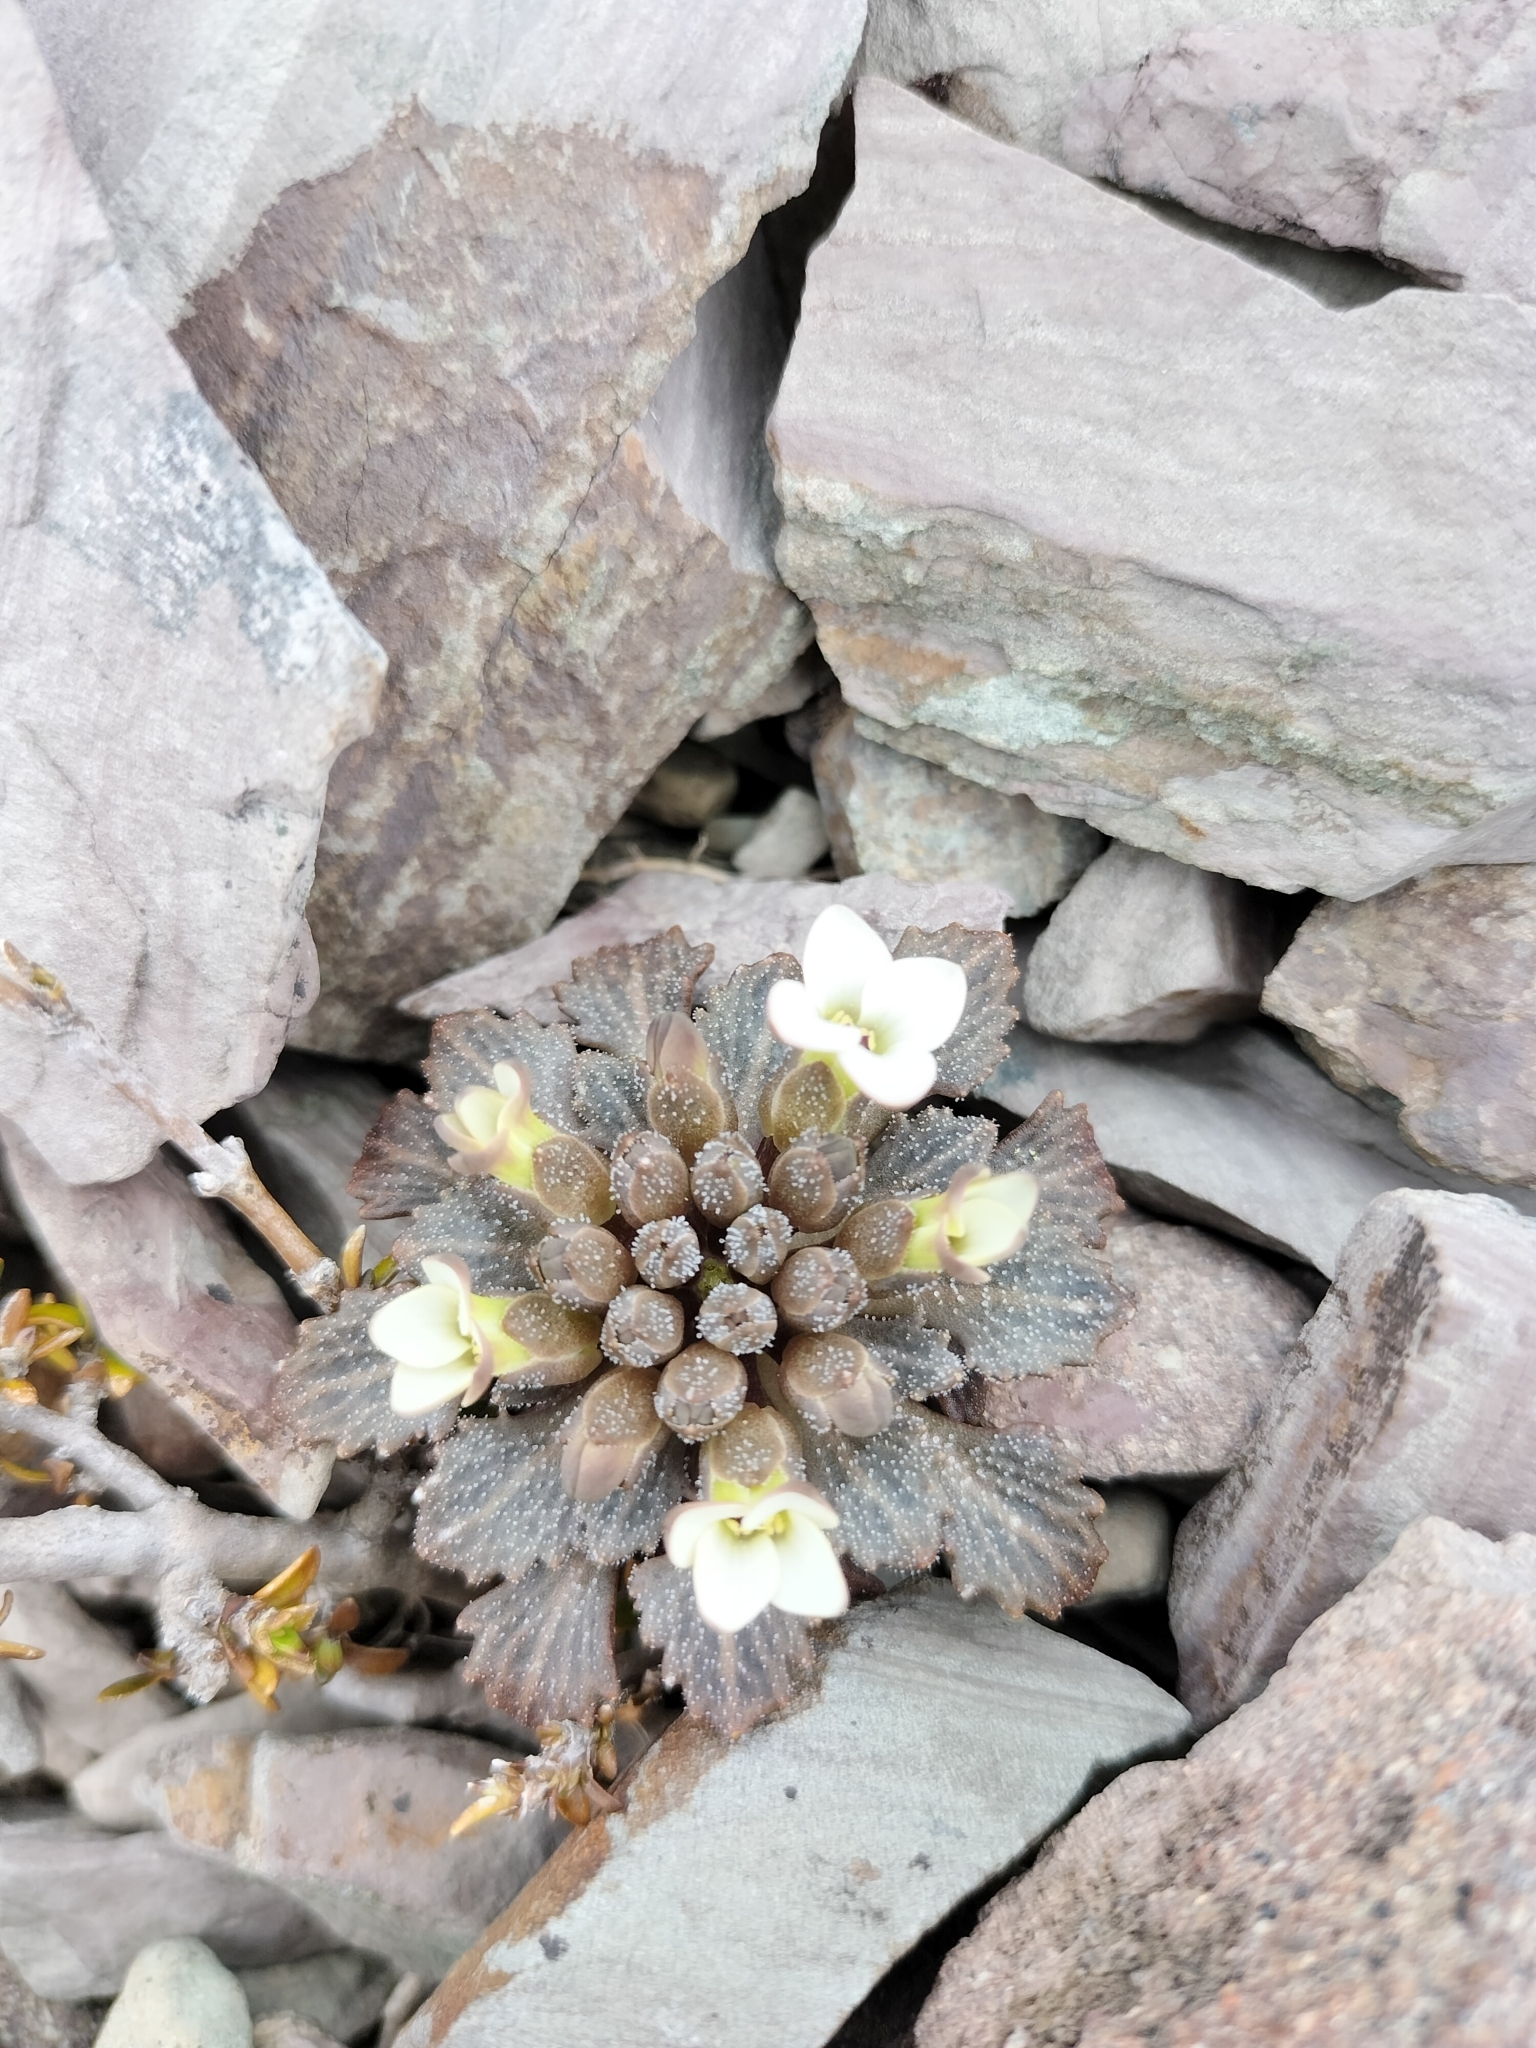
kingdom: Plantae
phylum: Tracheophyta
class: Magnoliopsida
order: Brassicales
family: Brassicaceae
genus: Notothlaspi
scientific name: Notothlaspi rosulatum
